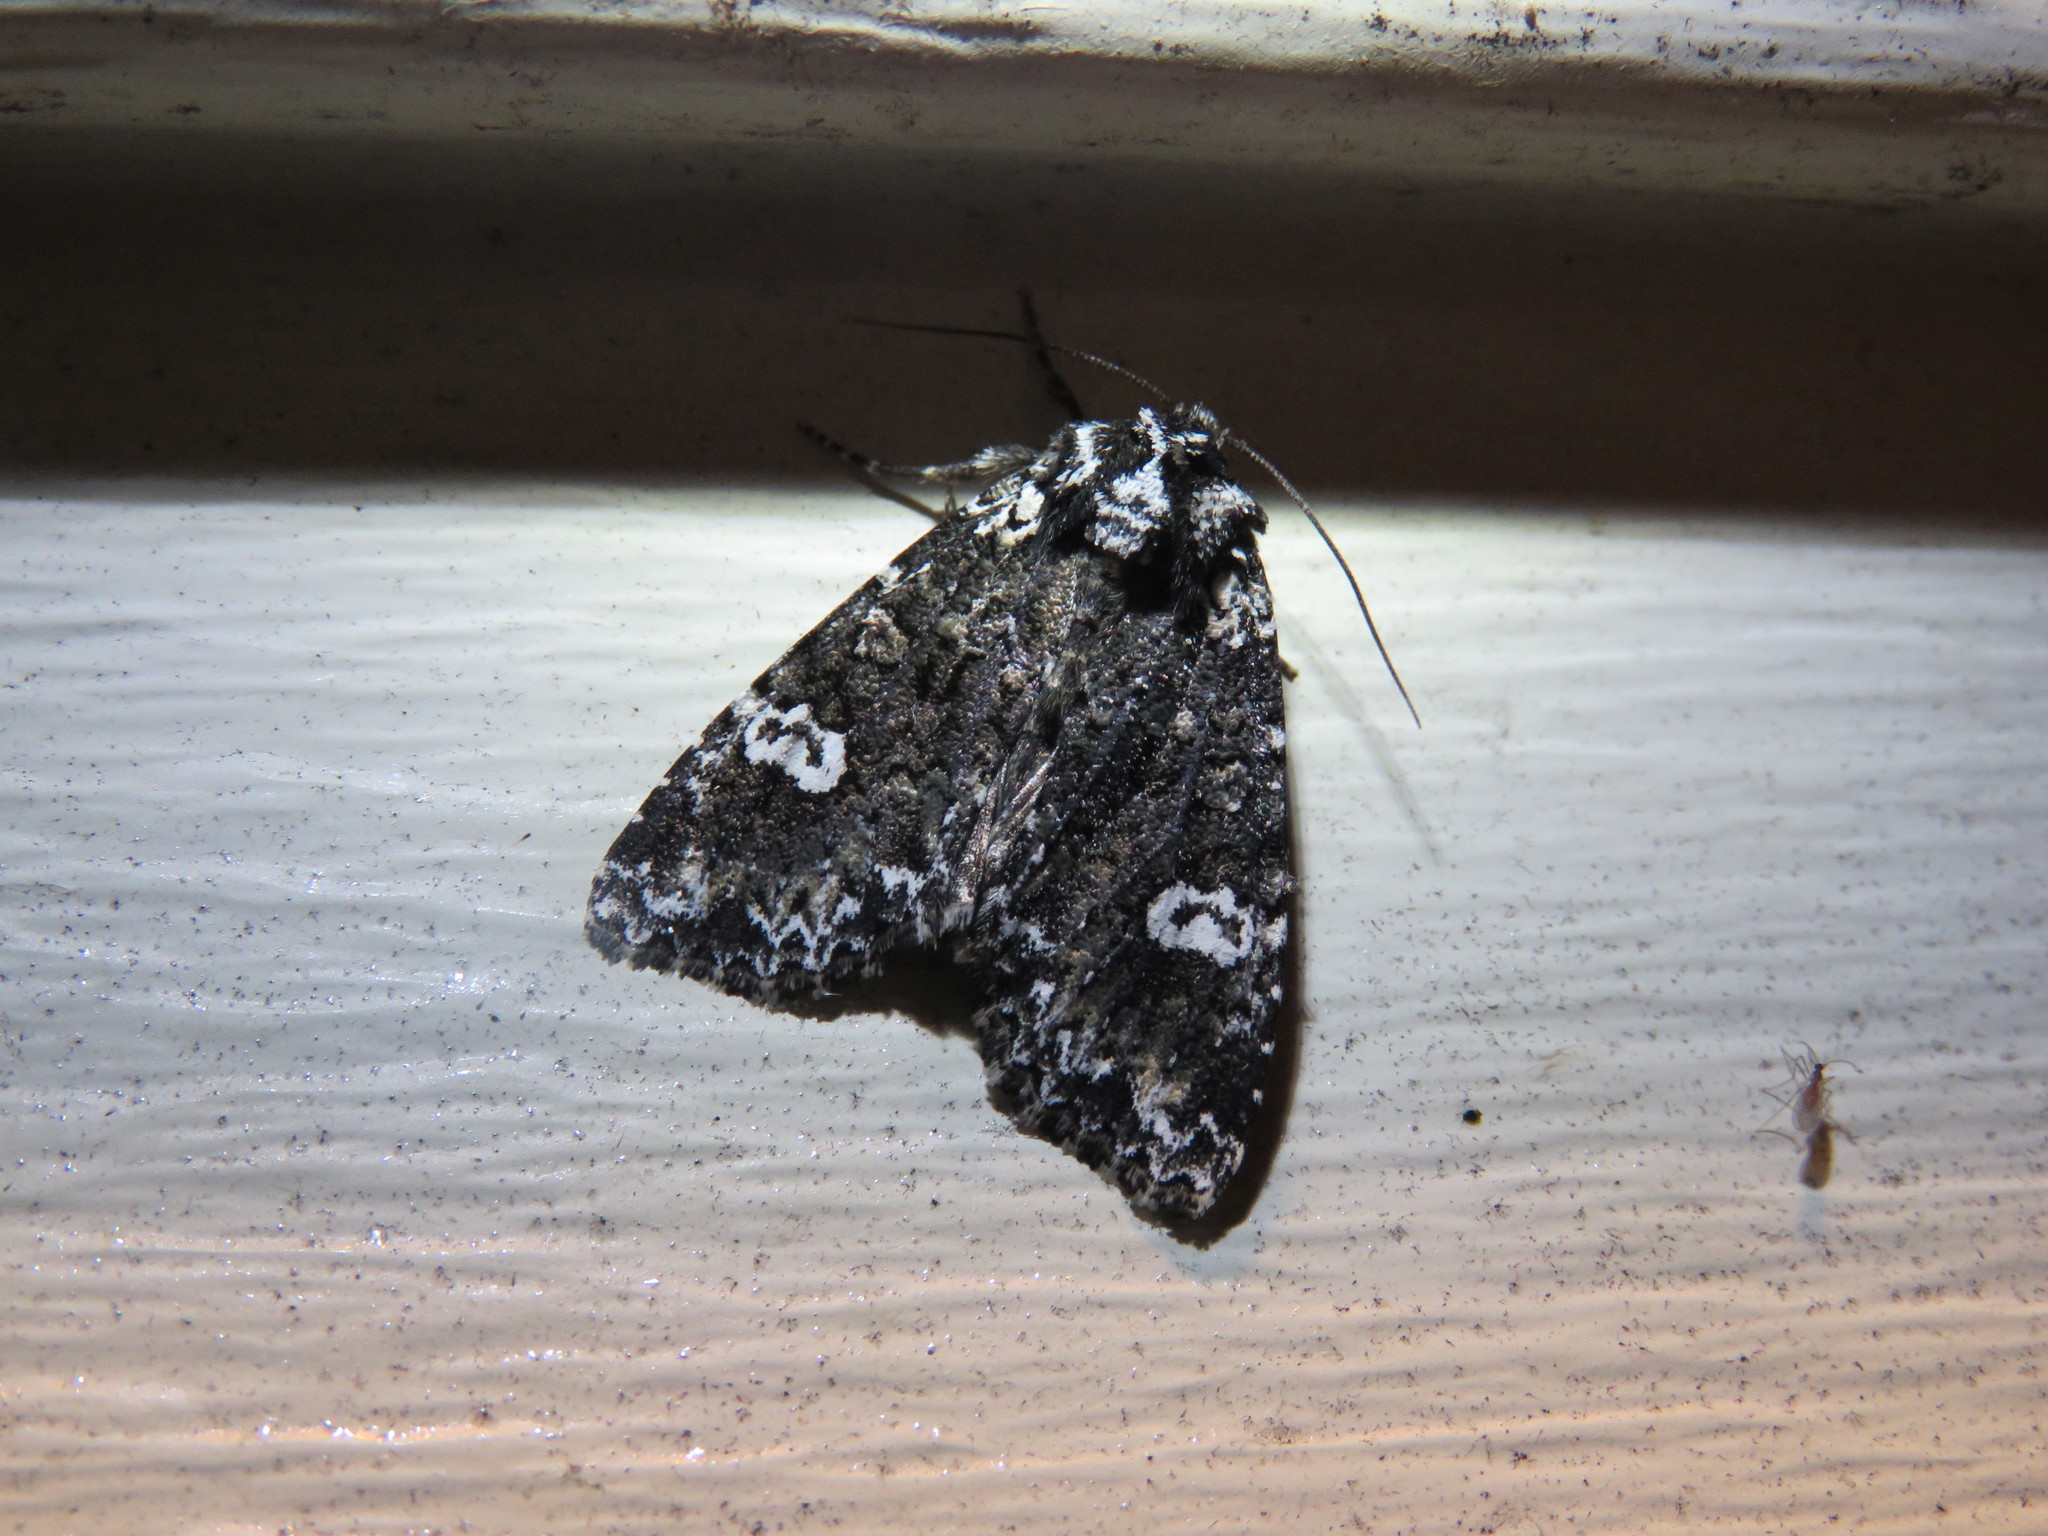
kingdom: Animalia
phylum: Arthropoda
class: Insecta
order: Lepidoptera
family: Noctuidae
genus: Melanchra
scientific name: Melanchra adjuncta
